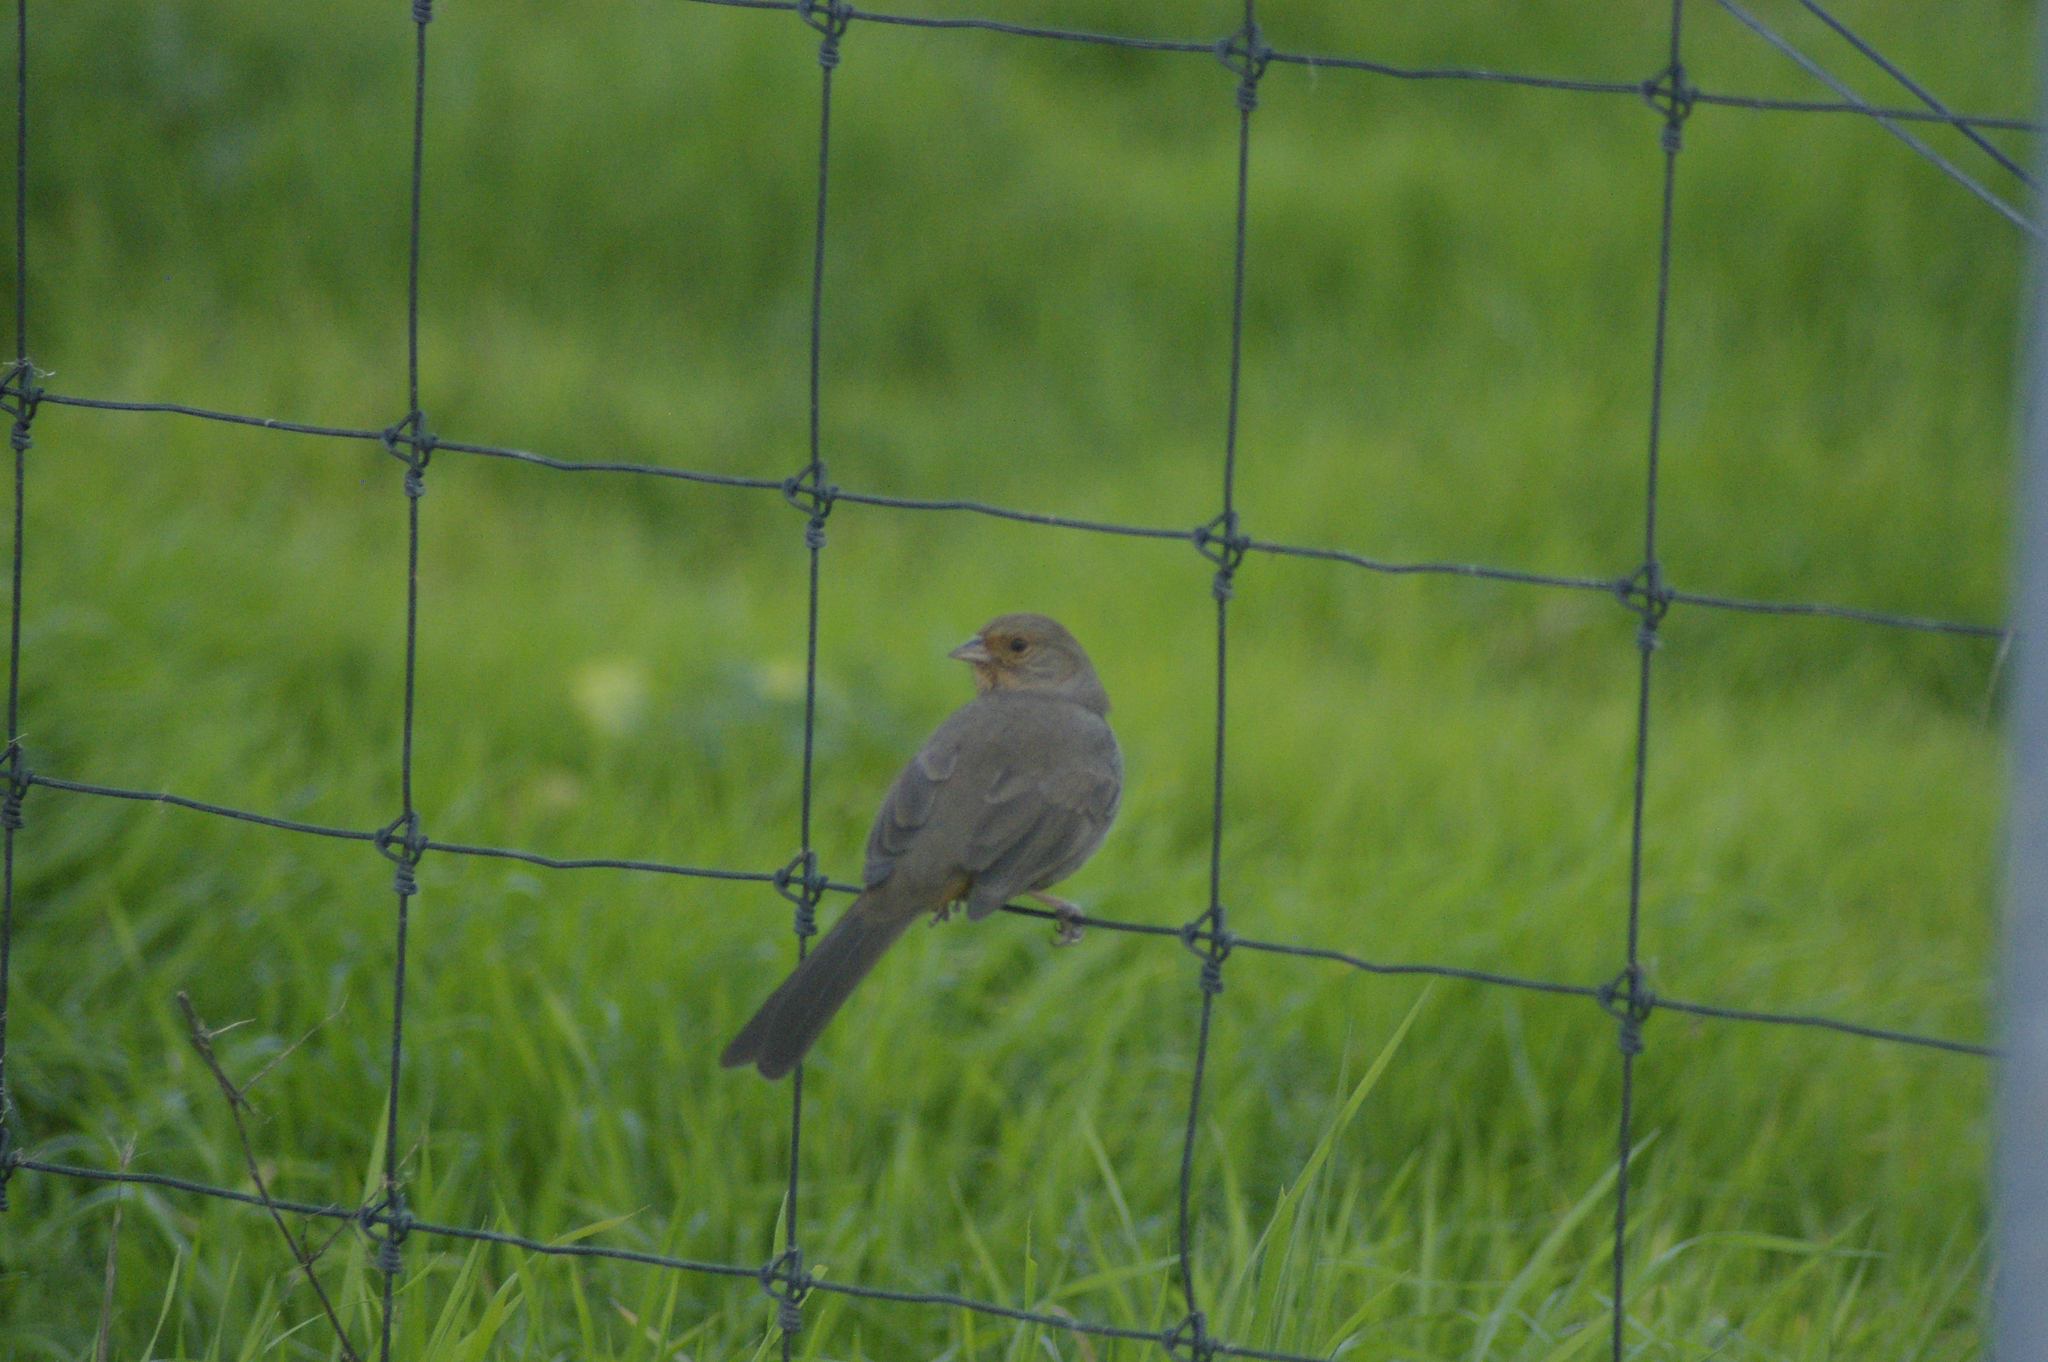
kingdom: Animalia
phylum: Chordata
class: Aves
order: Passeriformes
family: Passerellidae
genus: Melozone
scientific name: Melozone crissalis
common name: California towhee
